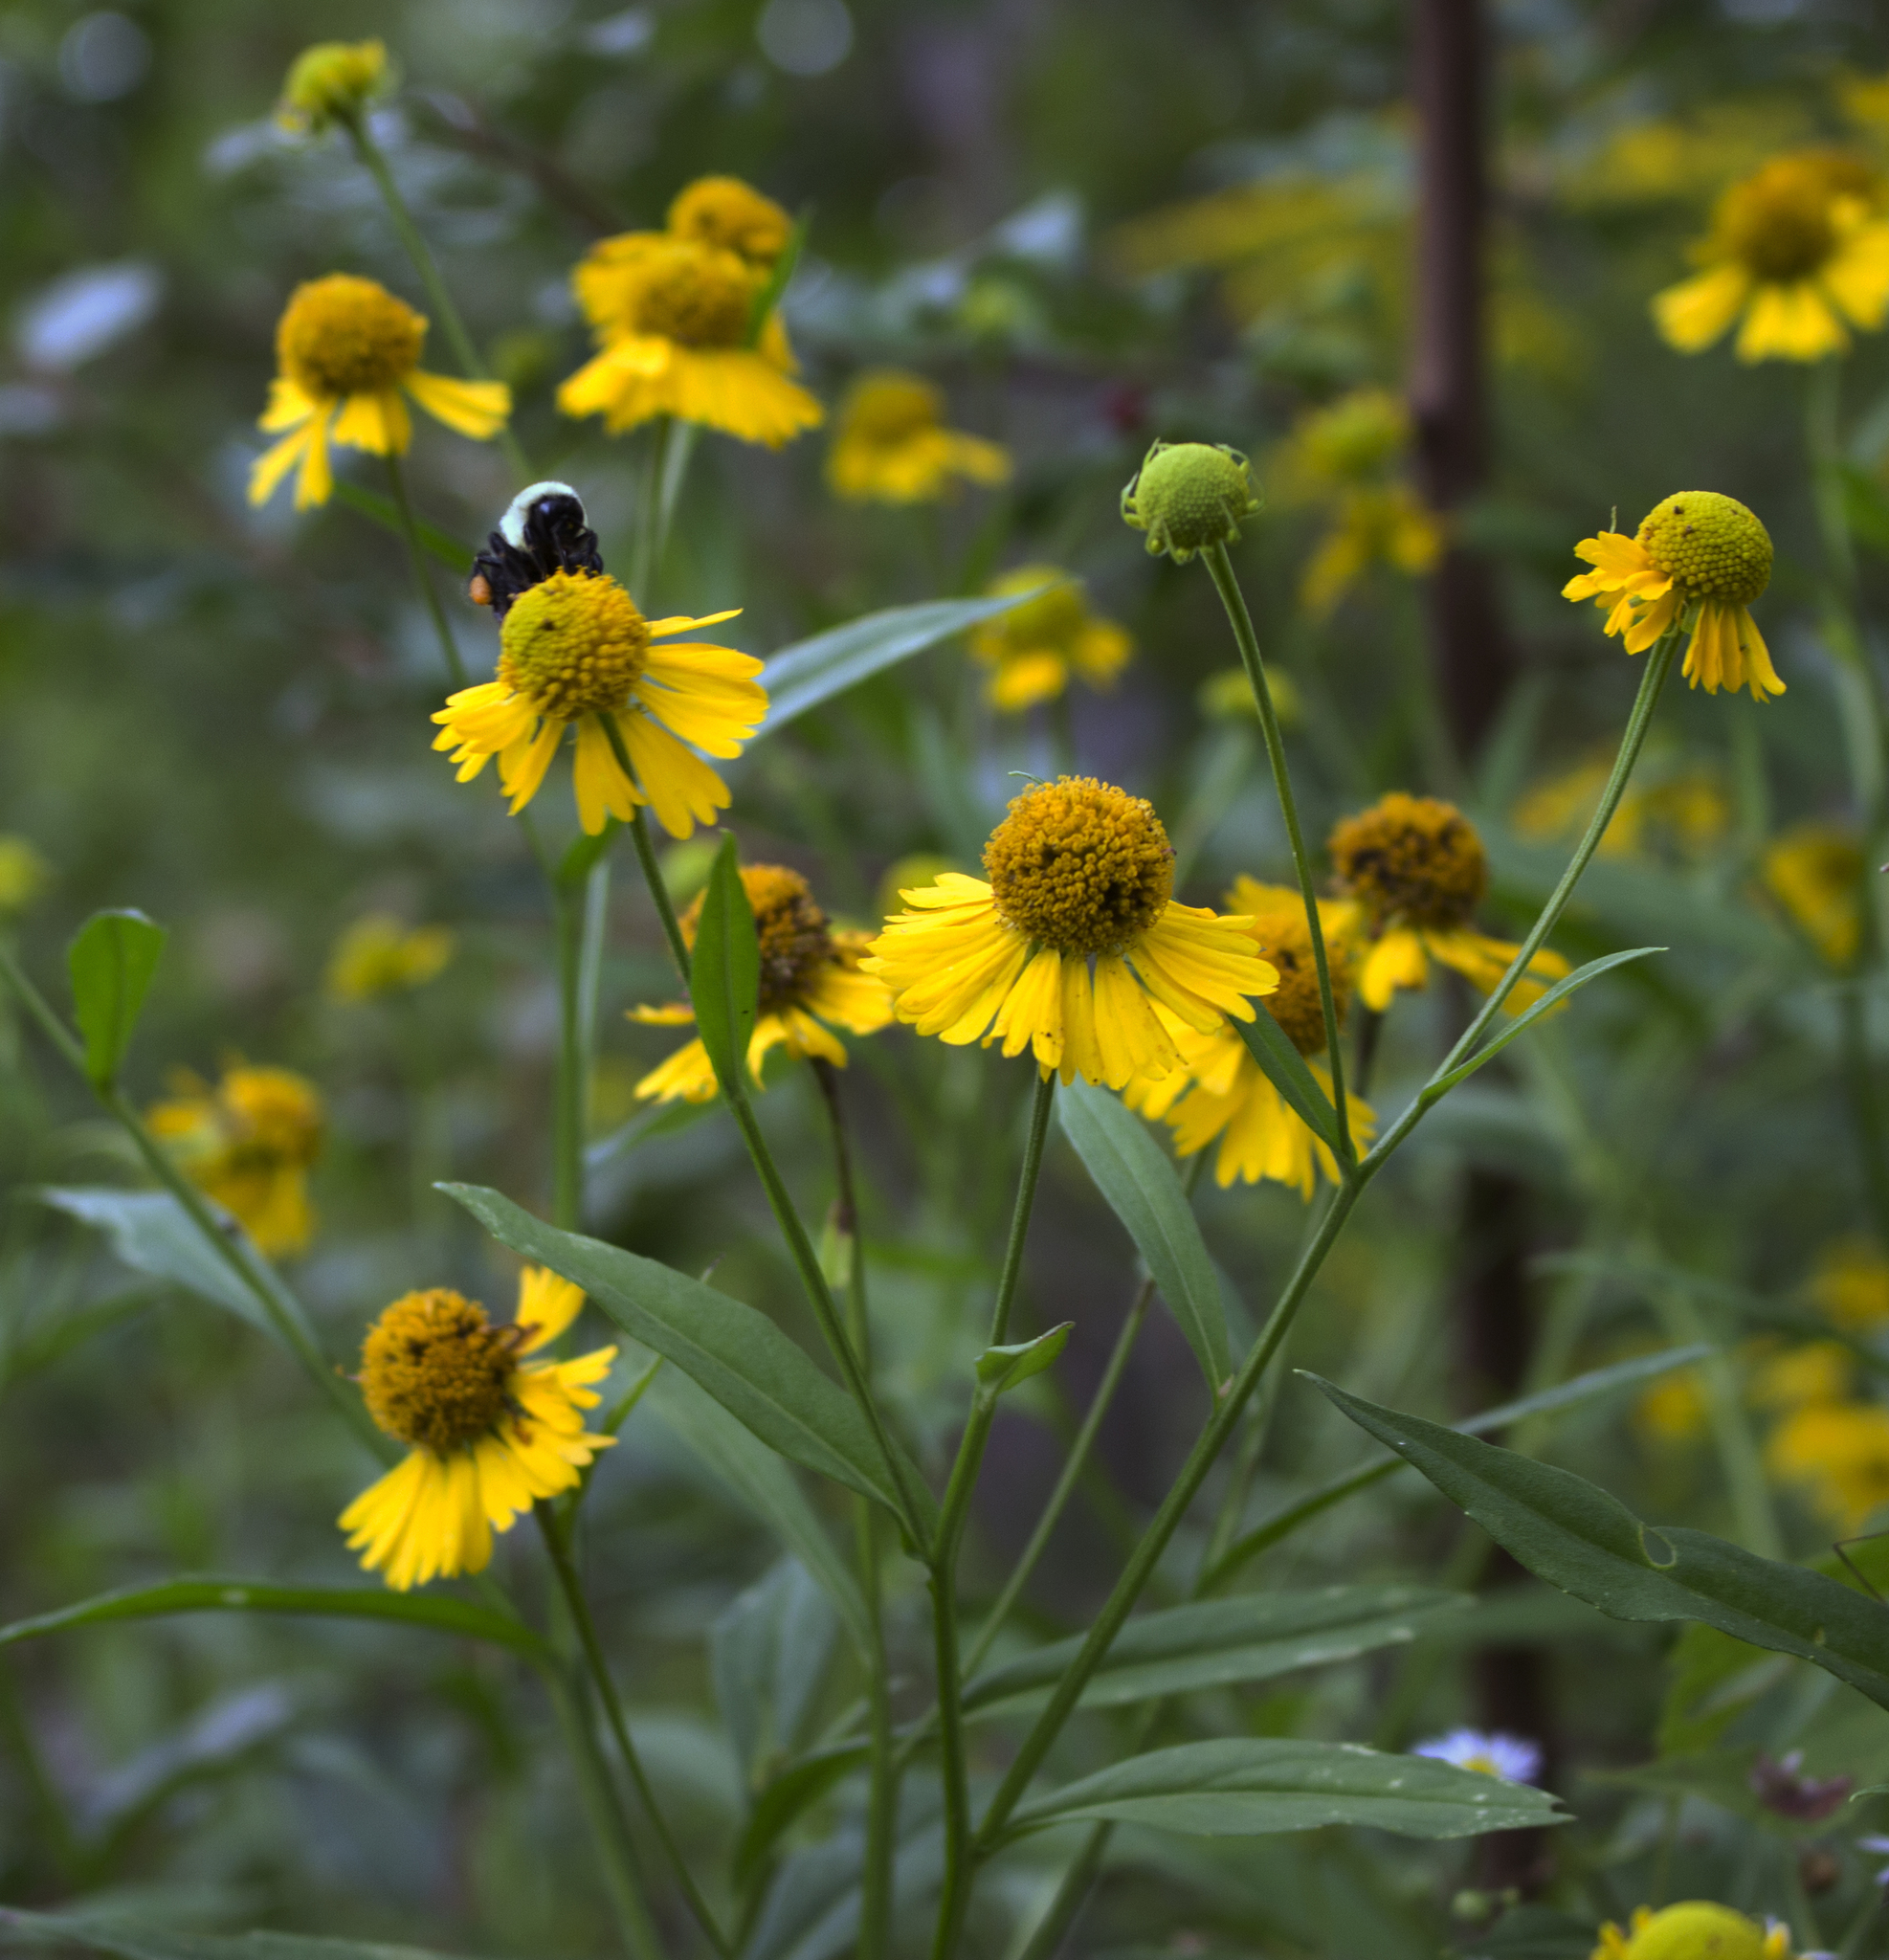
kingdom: Plantae
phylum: Tracheophyta
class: Magnoliopsida
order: Asterales
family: Asteraceae
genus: Helenium
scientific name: Helenium autumnale
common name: Sneezeweed
